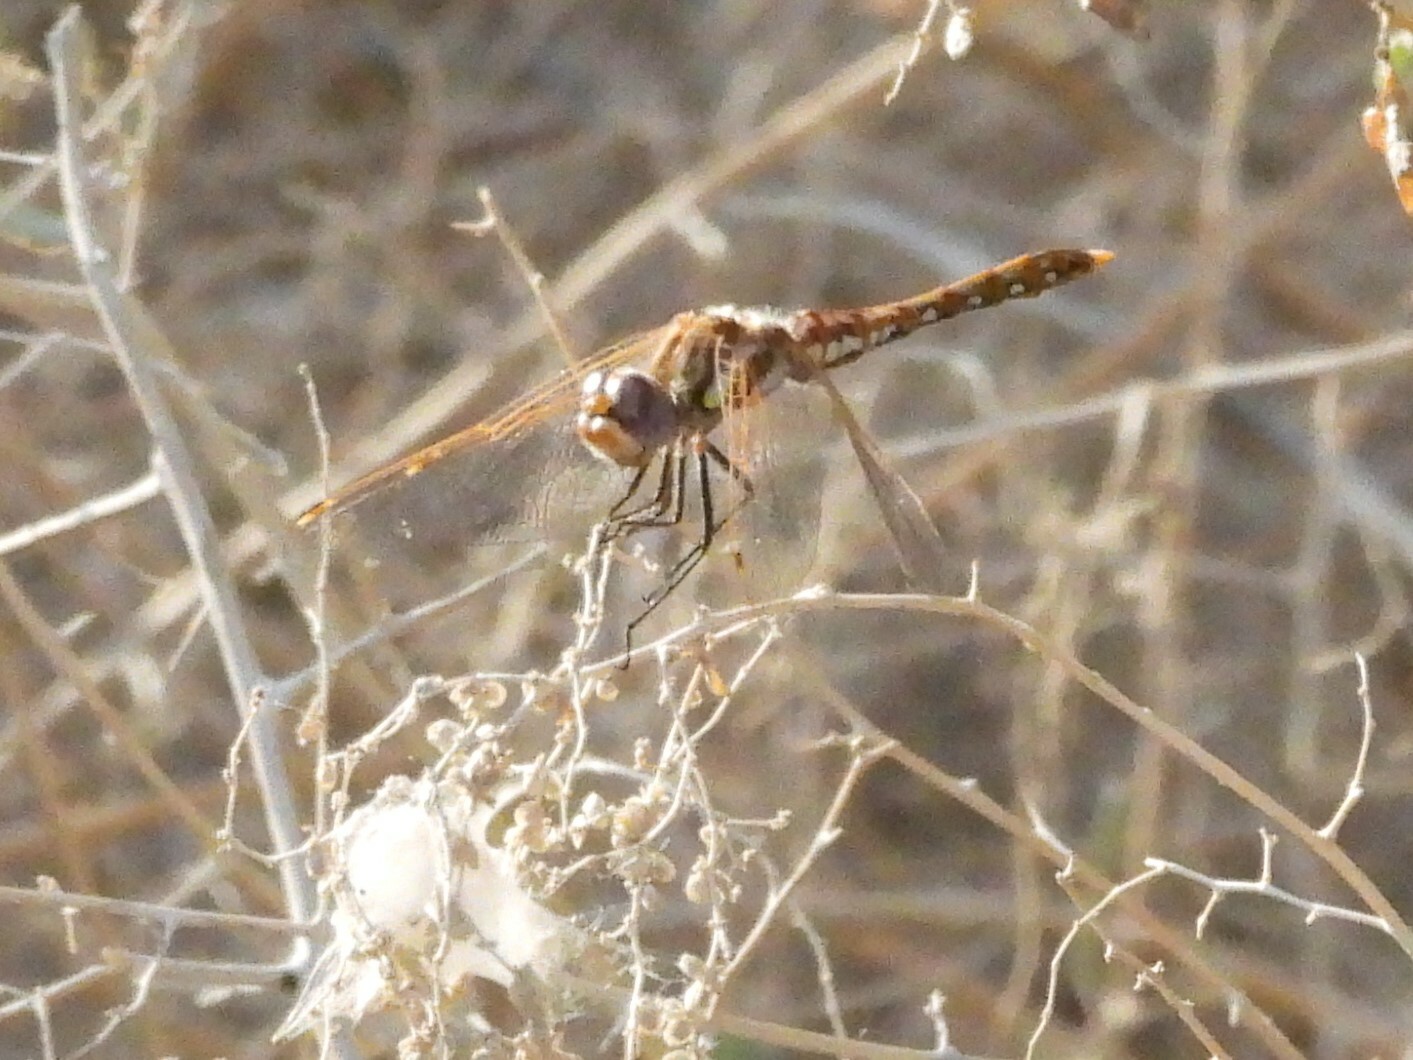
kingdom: Animalia
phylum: Arthropoda
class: Insecta
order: Odonata
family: Libellulidae
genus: Sympetrum
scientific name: Sympetrum corruptum
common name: Variegated meadowhawk
